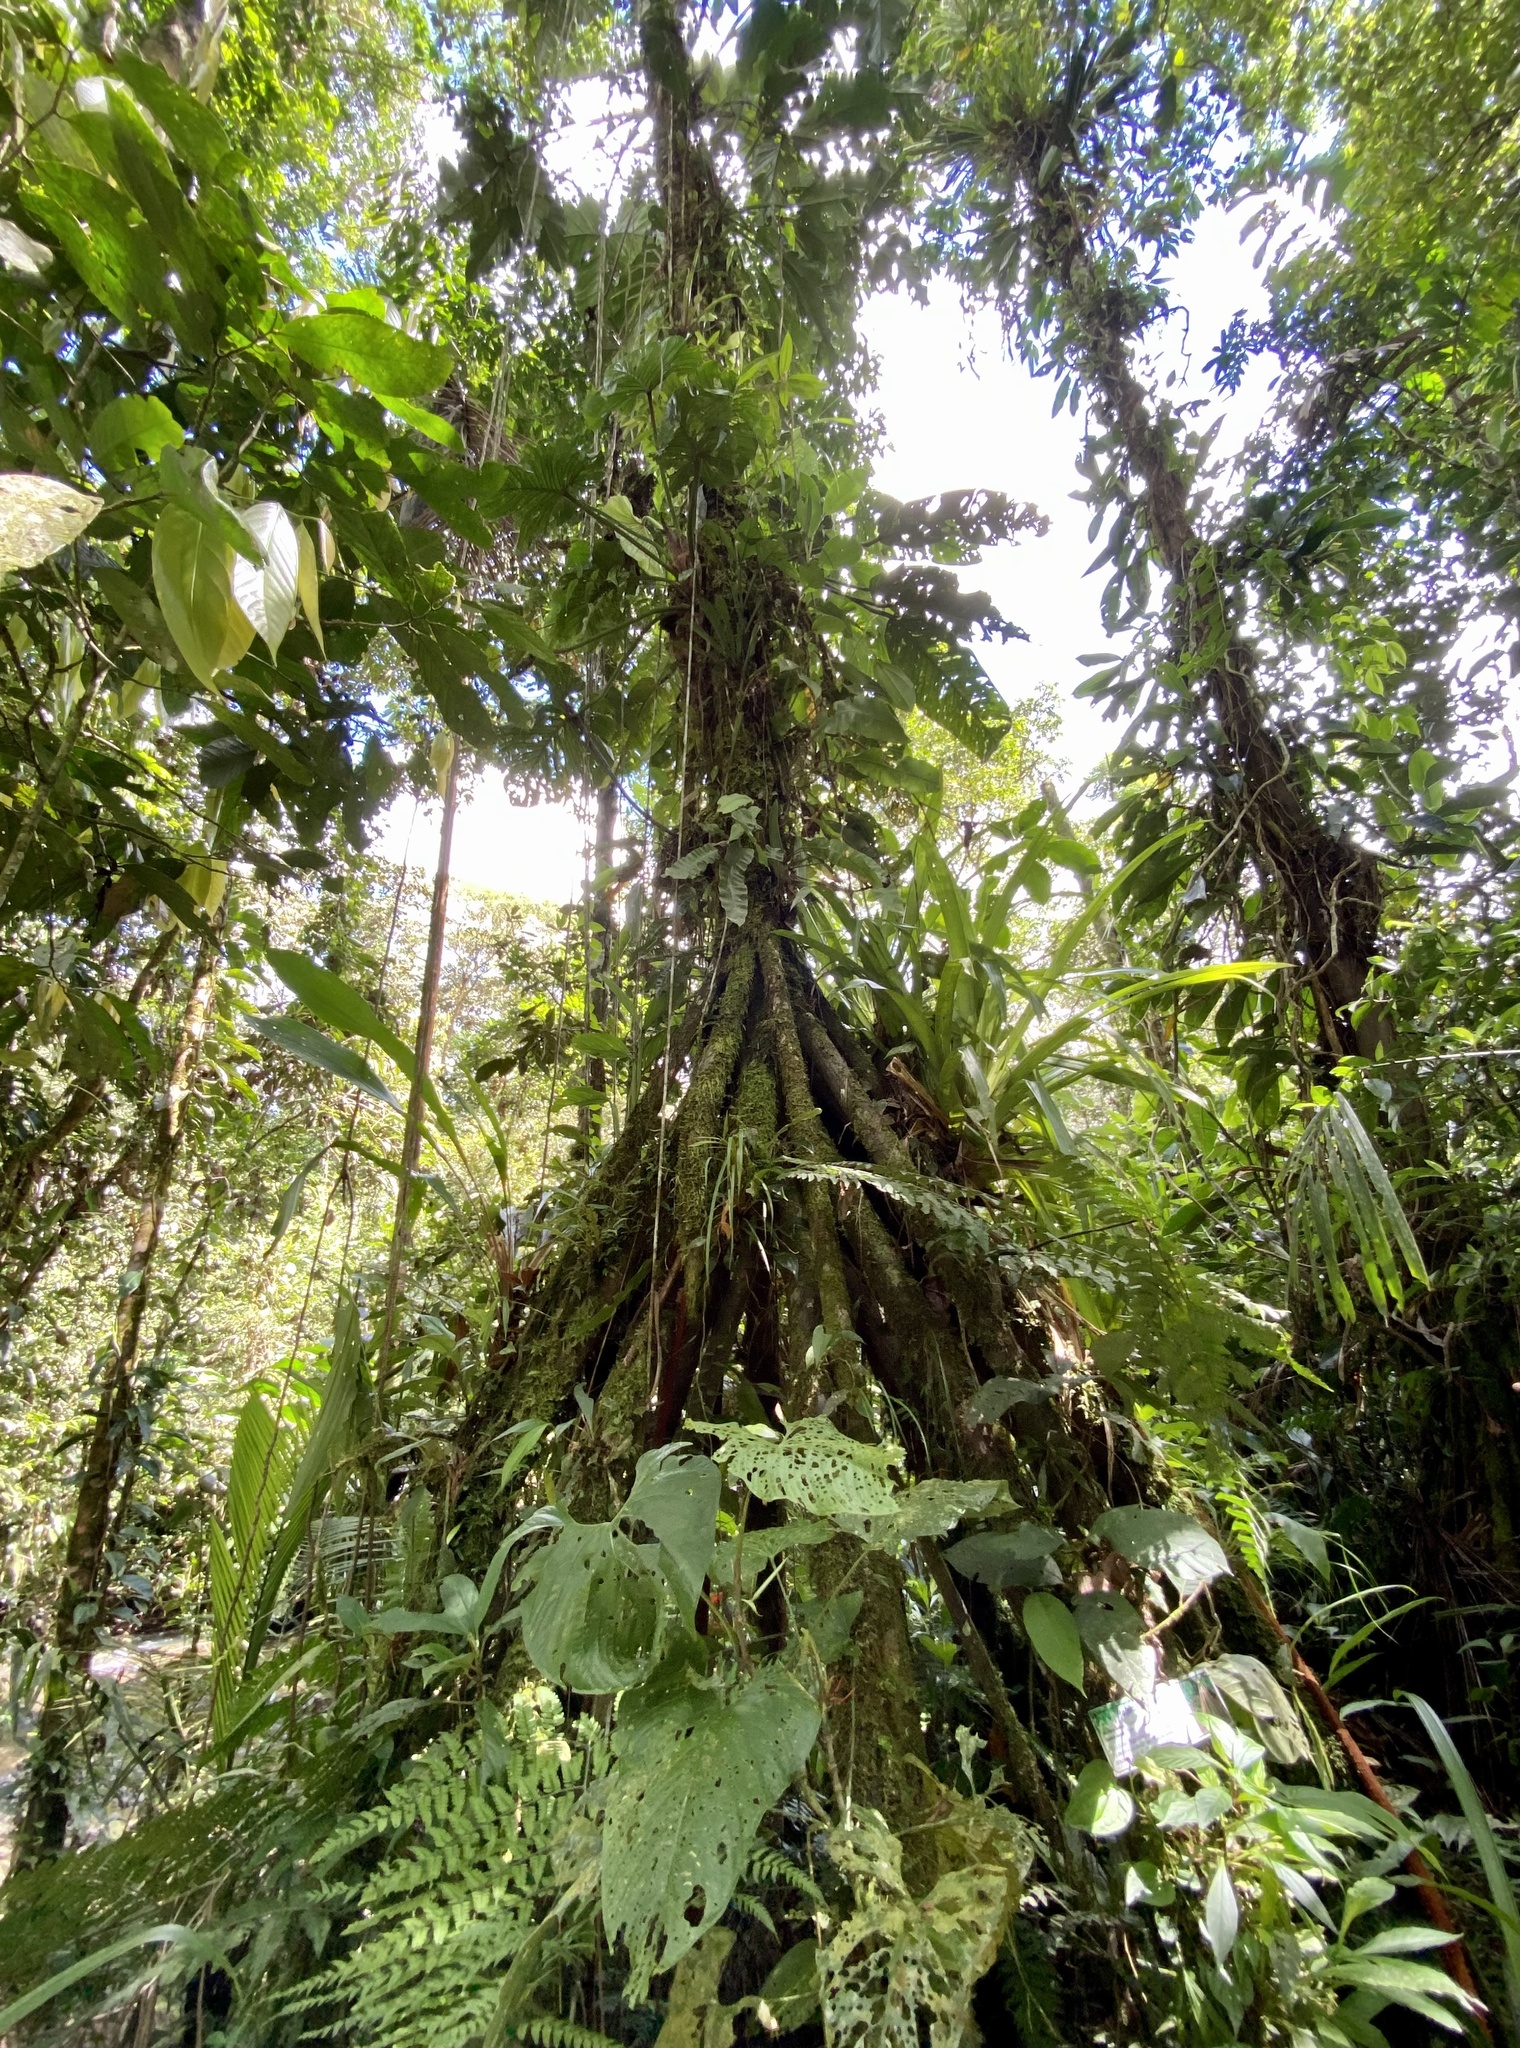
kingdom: Plantae
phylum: Tracheophyta
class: Liliopsida
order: Arecales
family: Arecaceae
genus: Socratea
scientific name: Socratea exorrhiza
